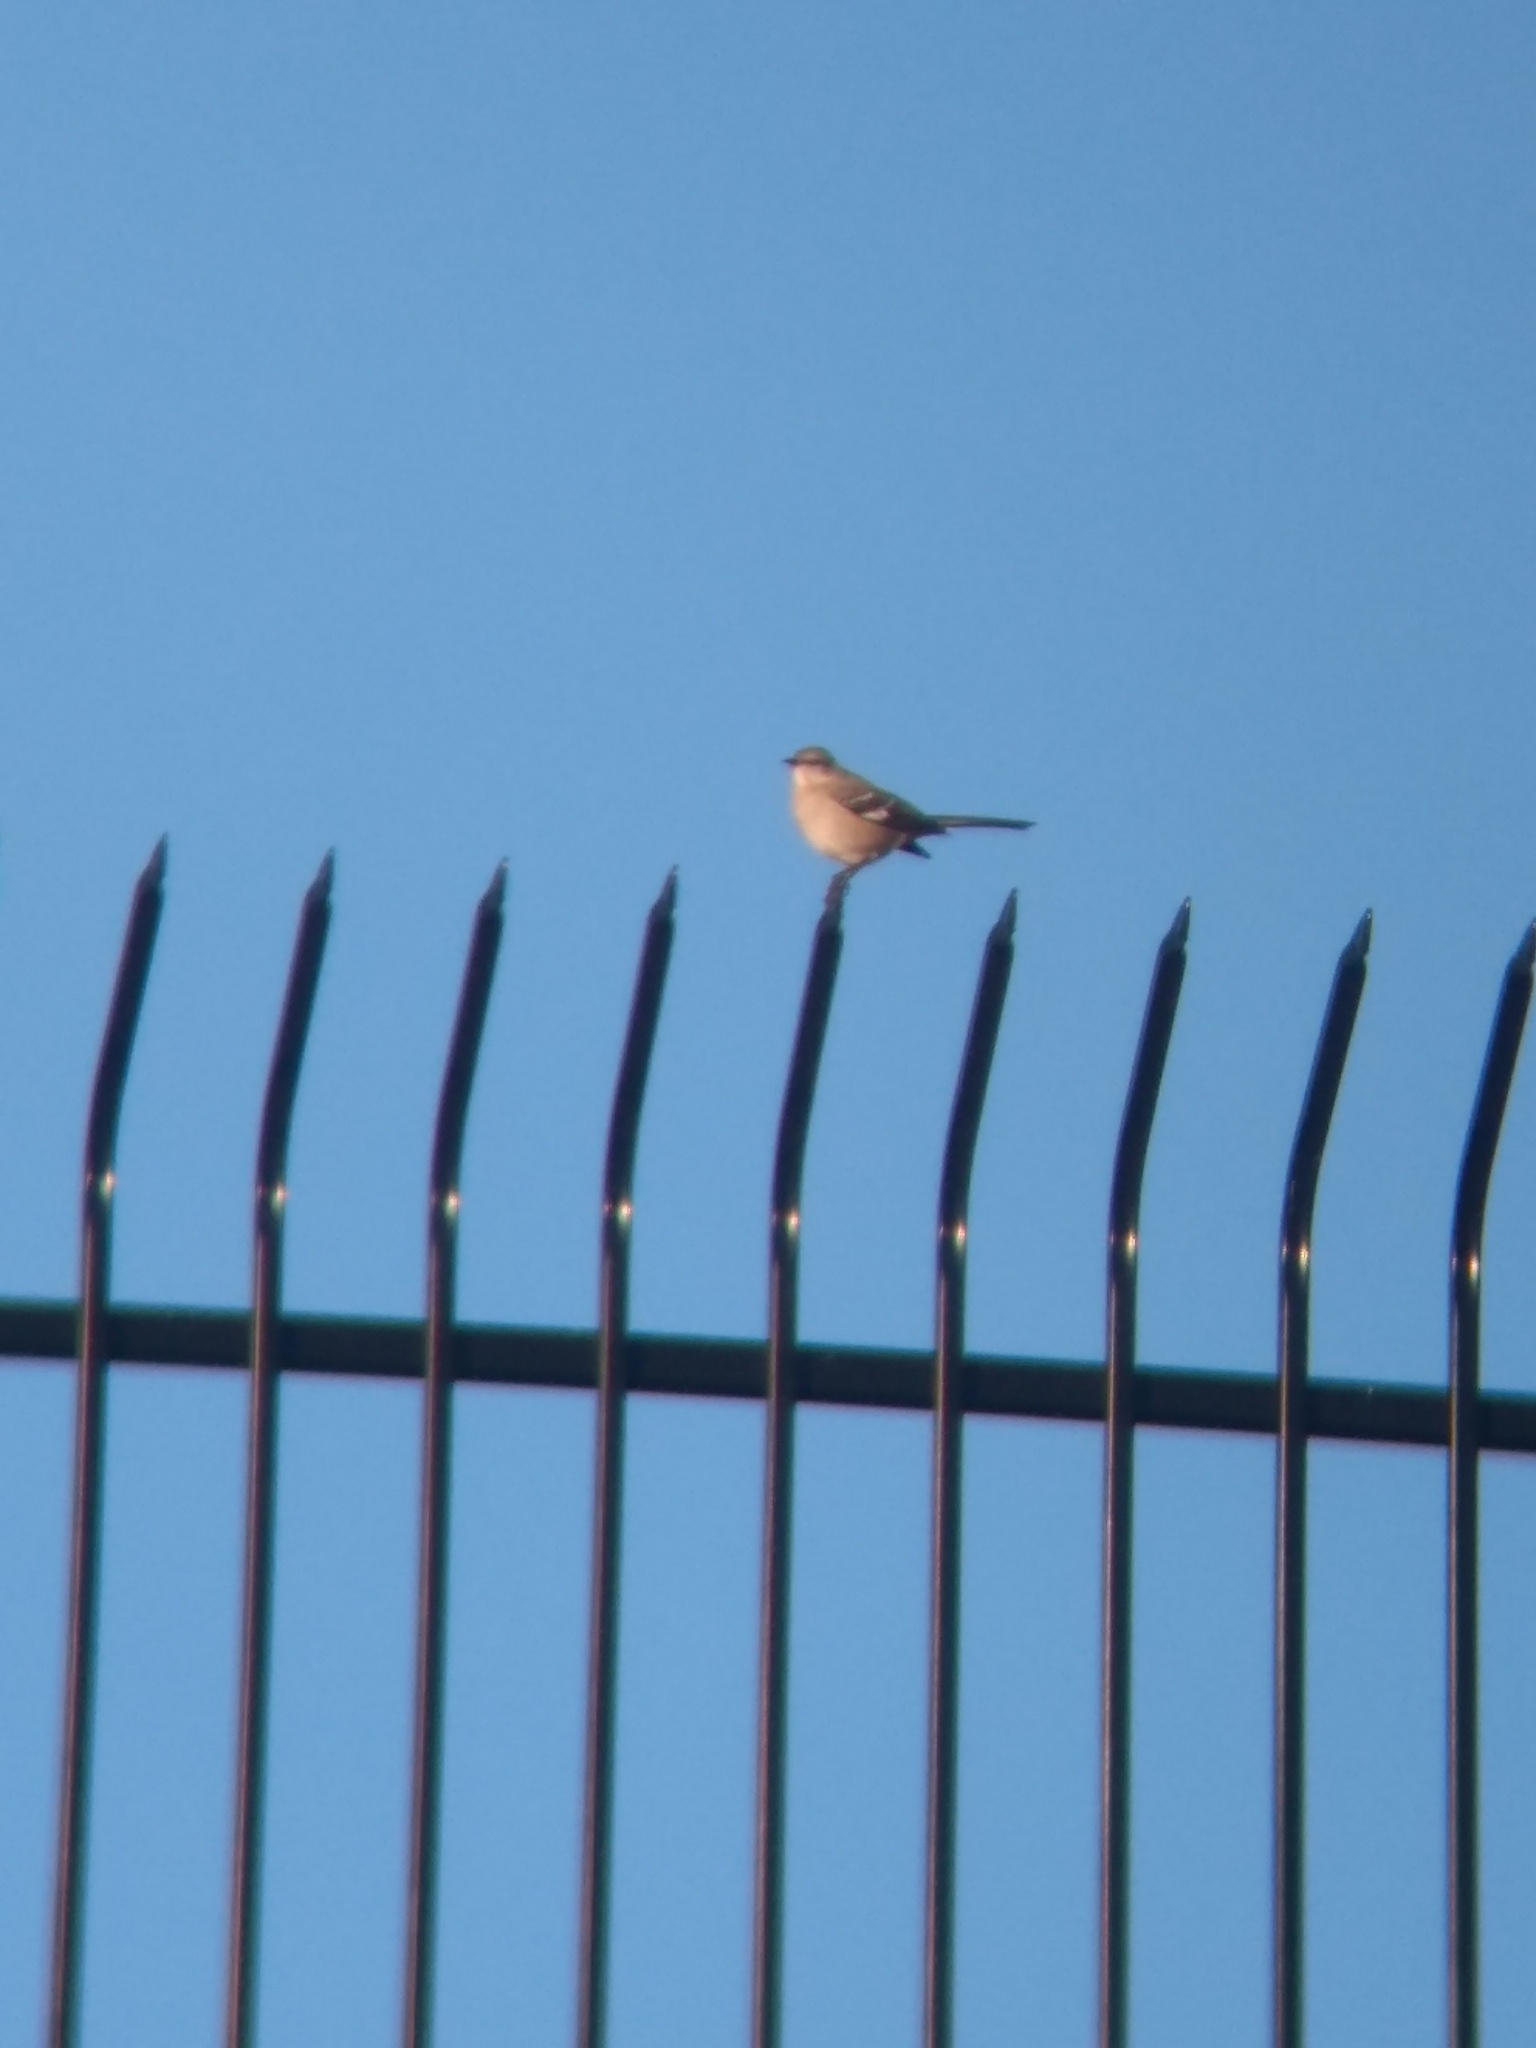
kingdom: Animalia
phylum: Chordata
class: Aves
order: Passeriformes
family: Mimidae
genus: Mimus
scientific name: Mimus polyglottos
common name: Northern mockingbird
